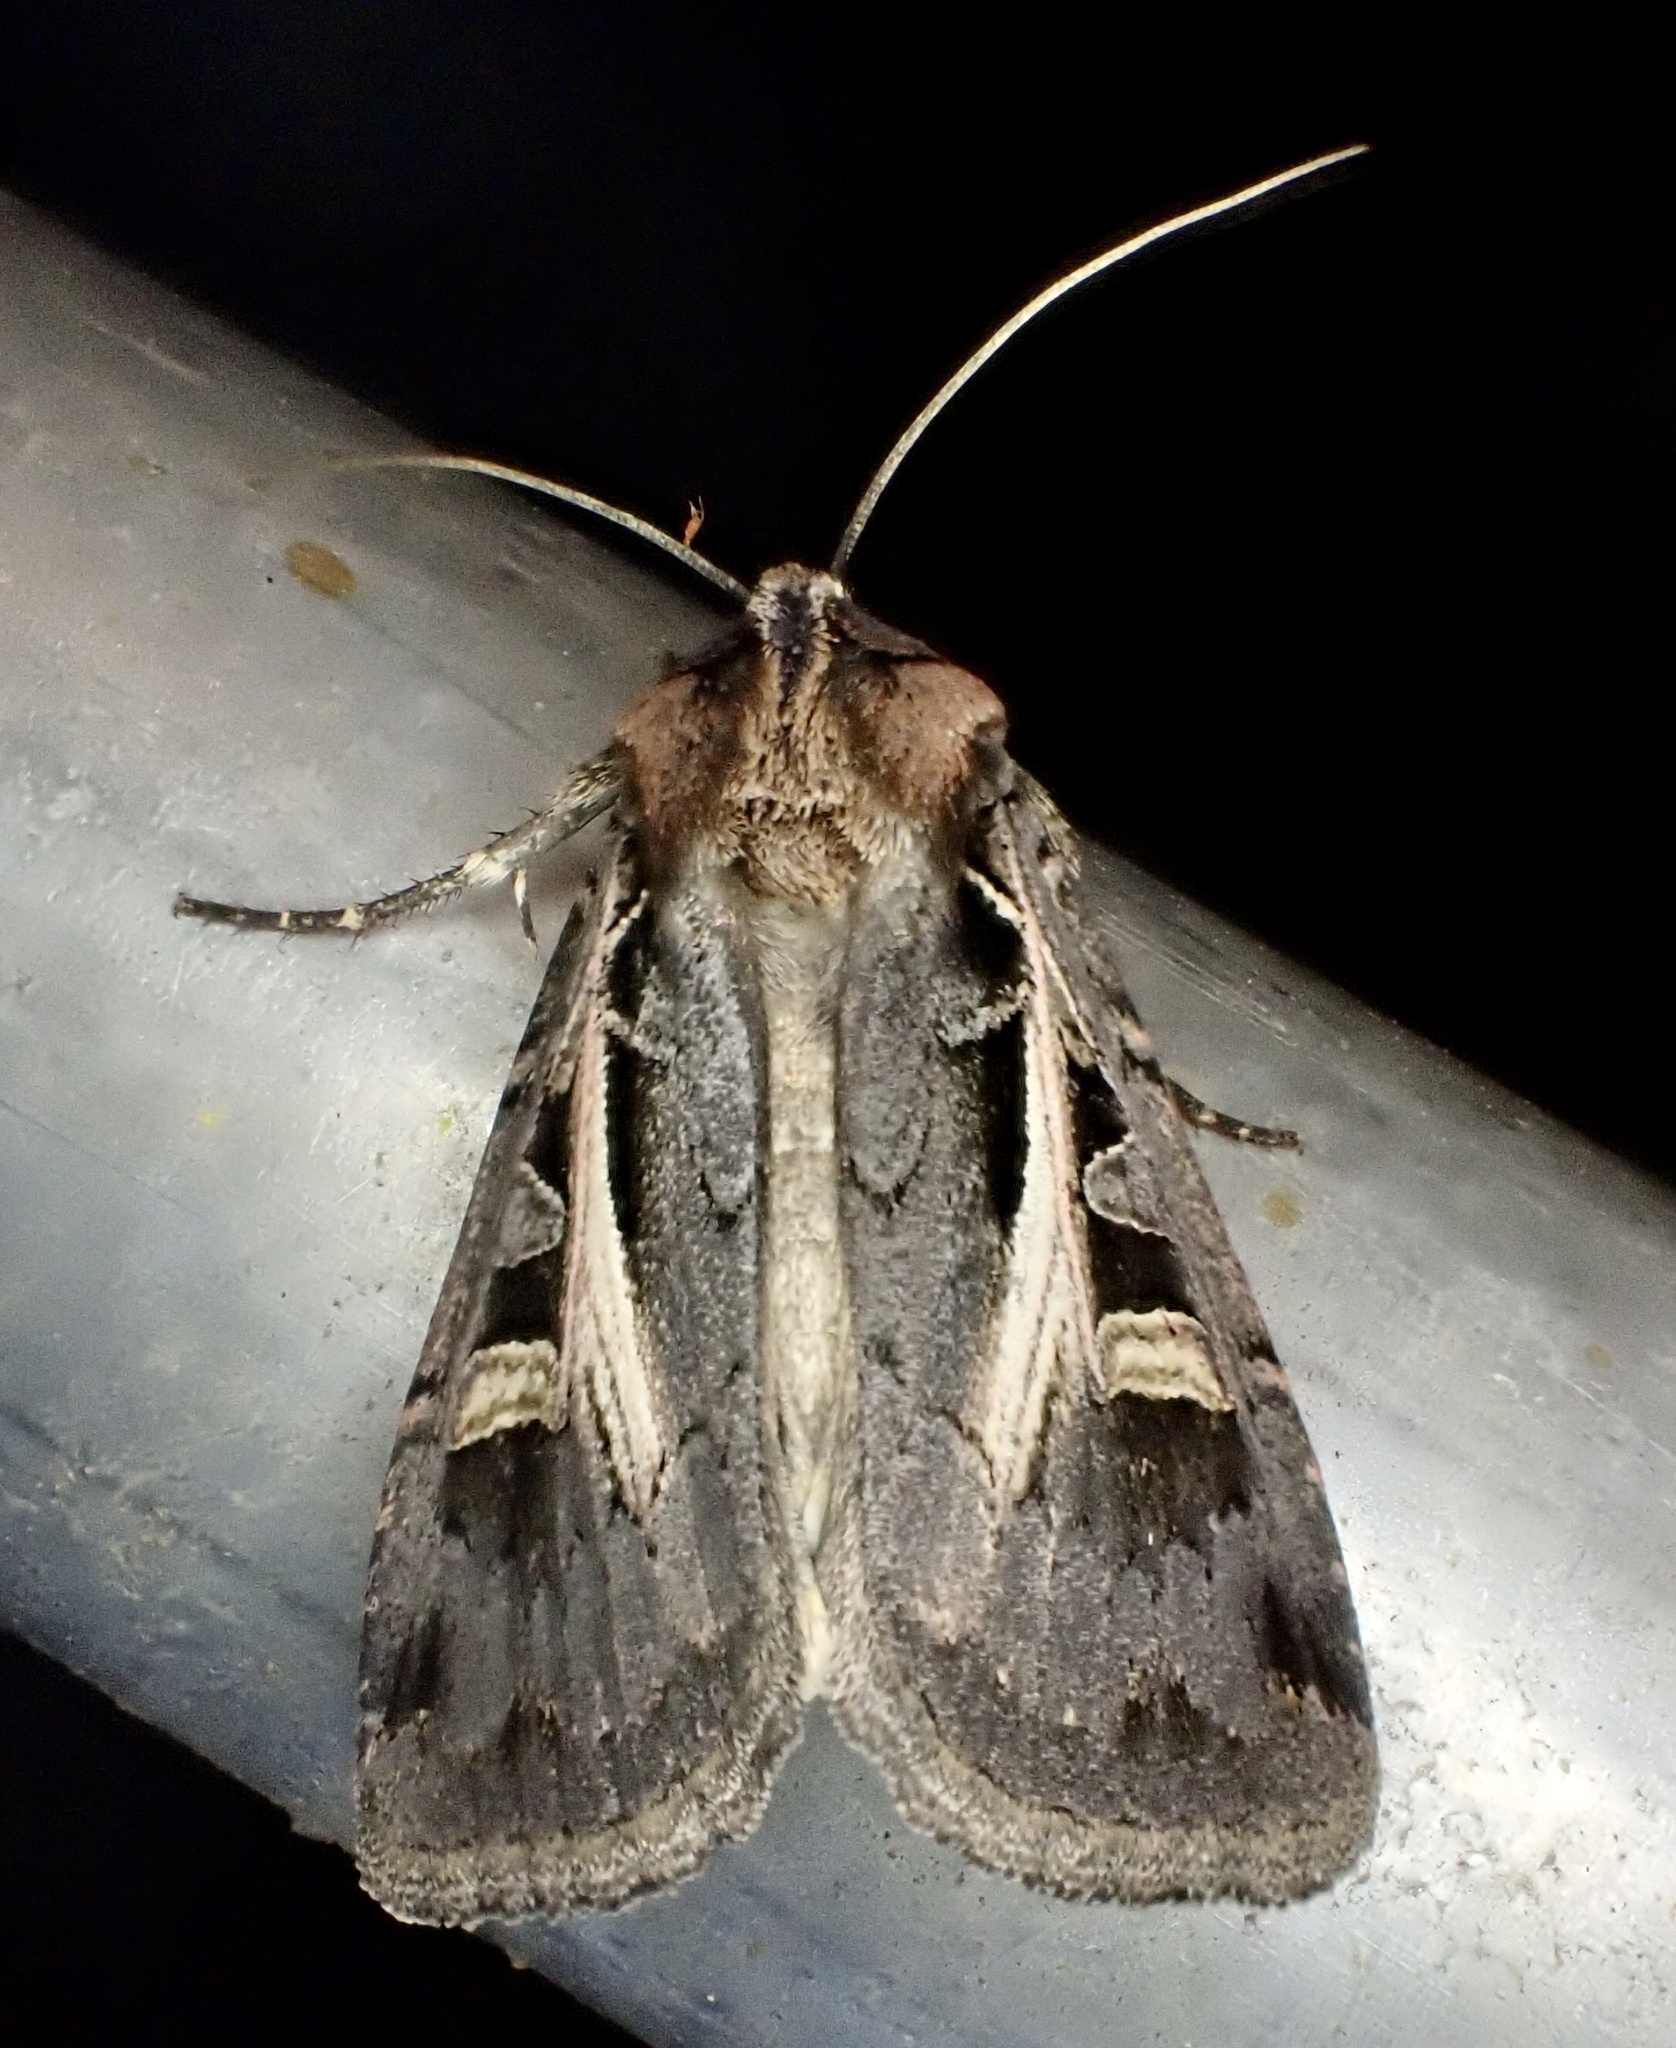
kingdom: Animalia
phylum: Arthropoda
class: Insecta
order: Lepidoptera
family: Noctuidae
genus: Feltia
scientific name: Feltia herilis
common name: Master's dart
